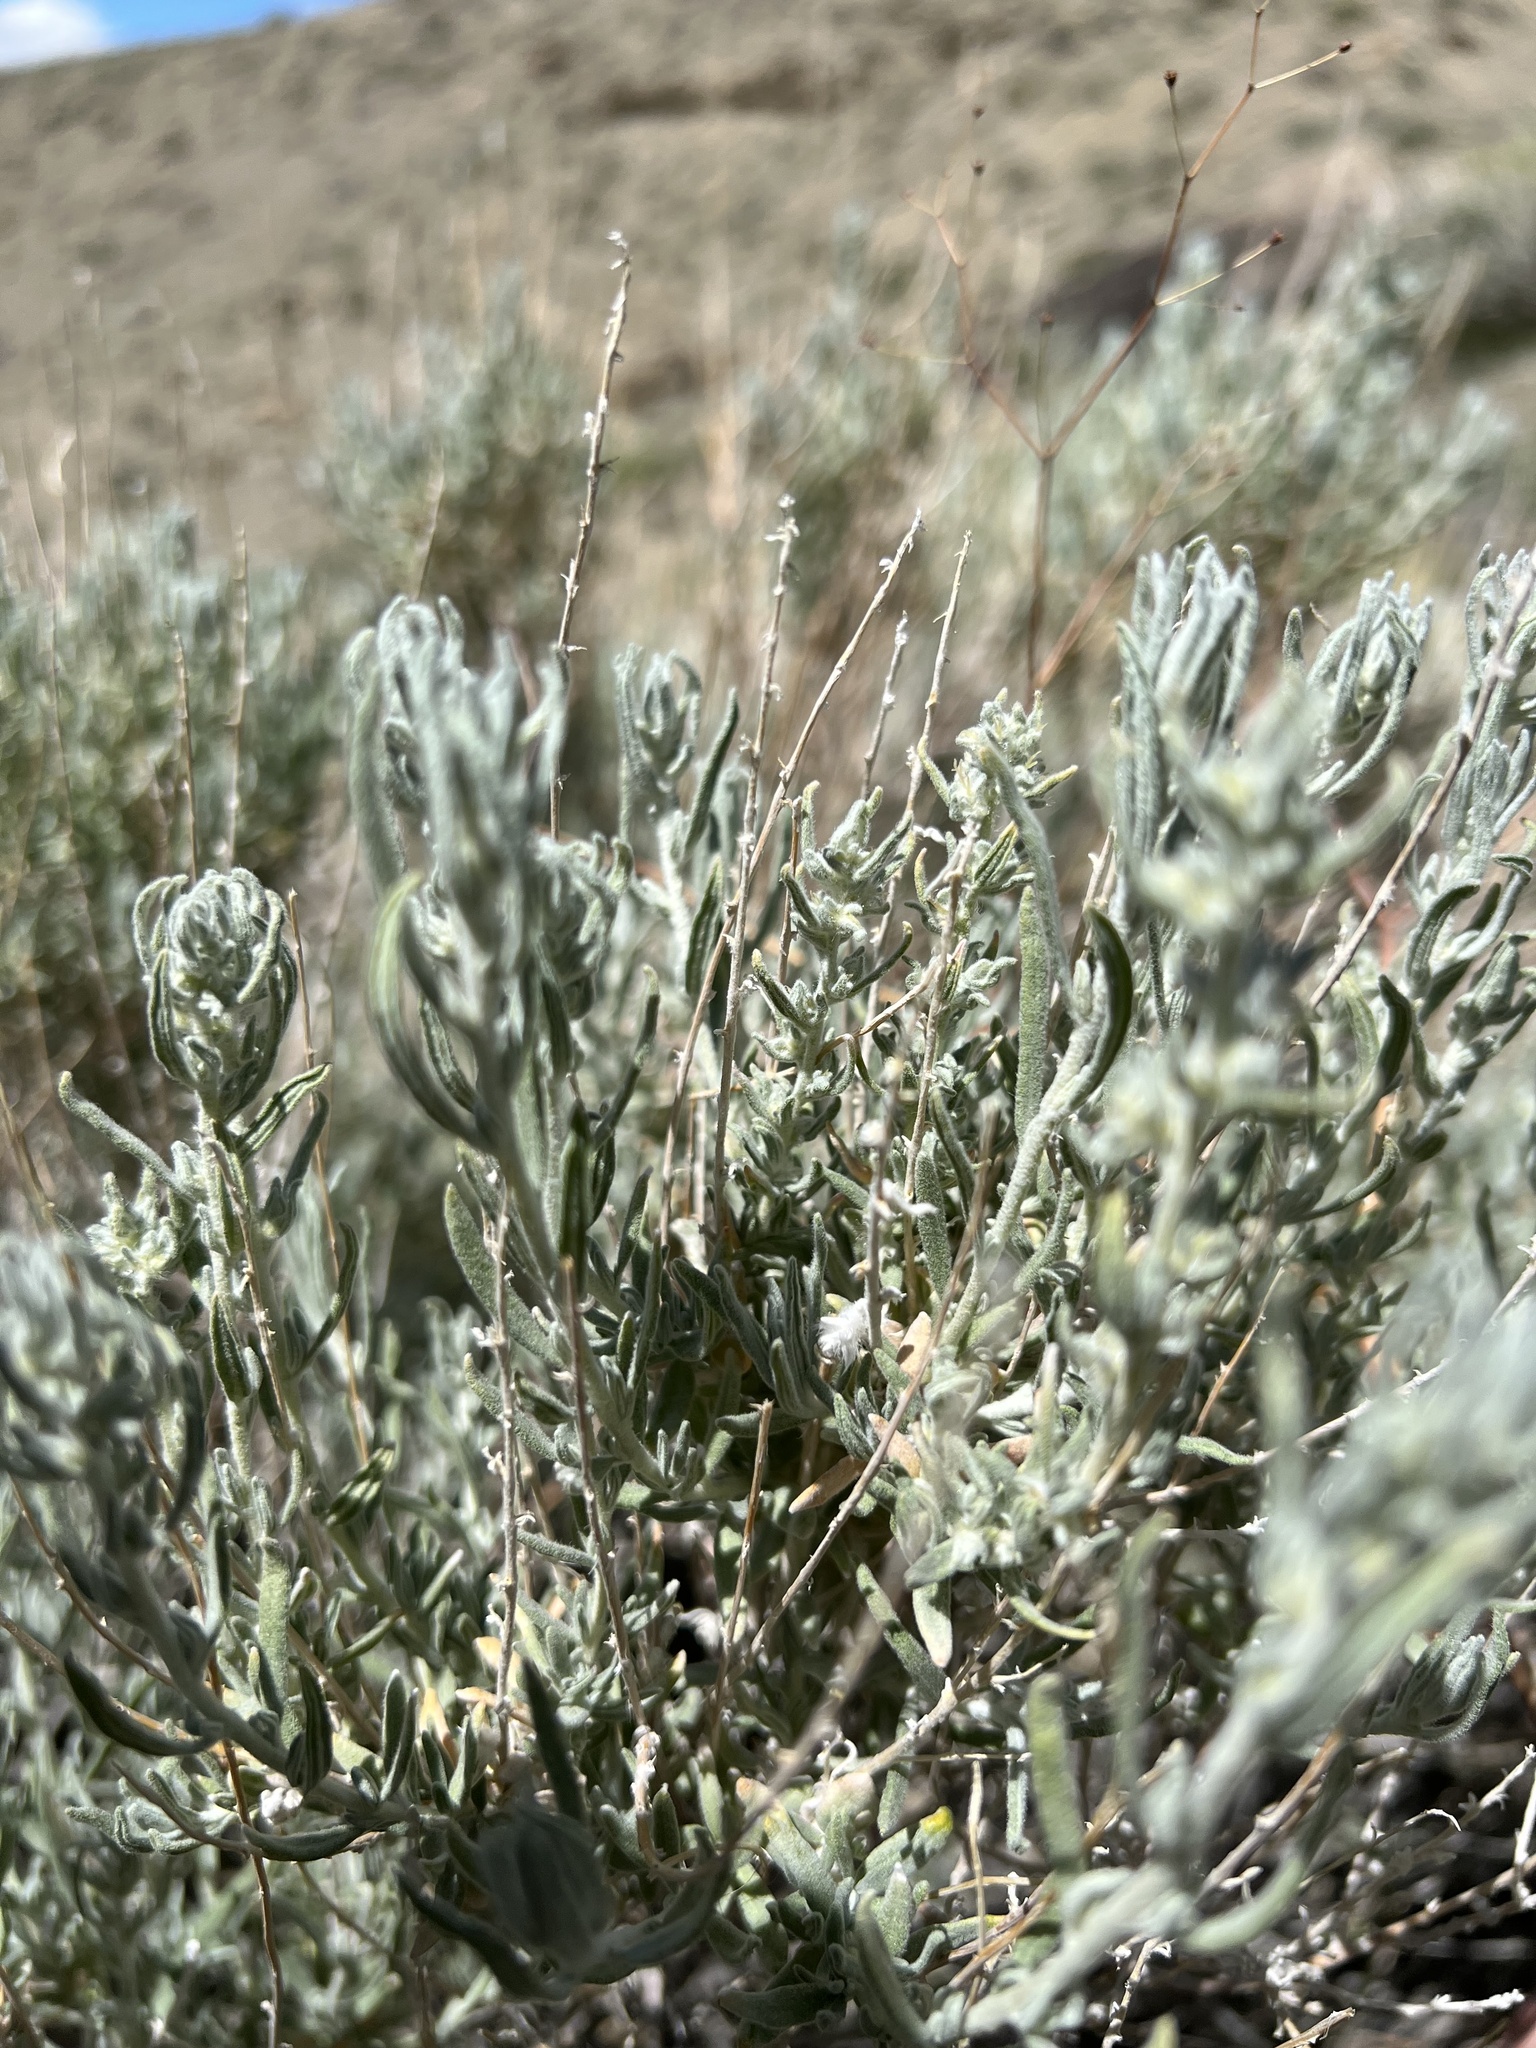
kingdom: Plantae
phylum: Tracheophyta
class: Magnoliopsida
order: Caryophyllales
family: Amaranthaceae
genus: Krascheninnikovia
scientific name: Krascheninnikovia lanata
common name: Winterfat
